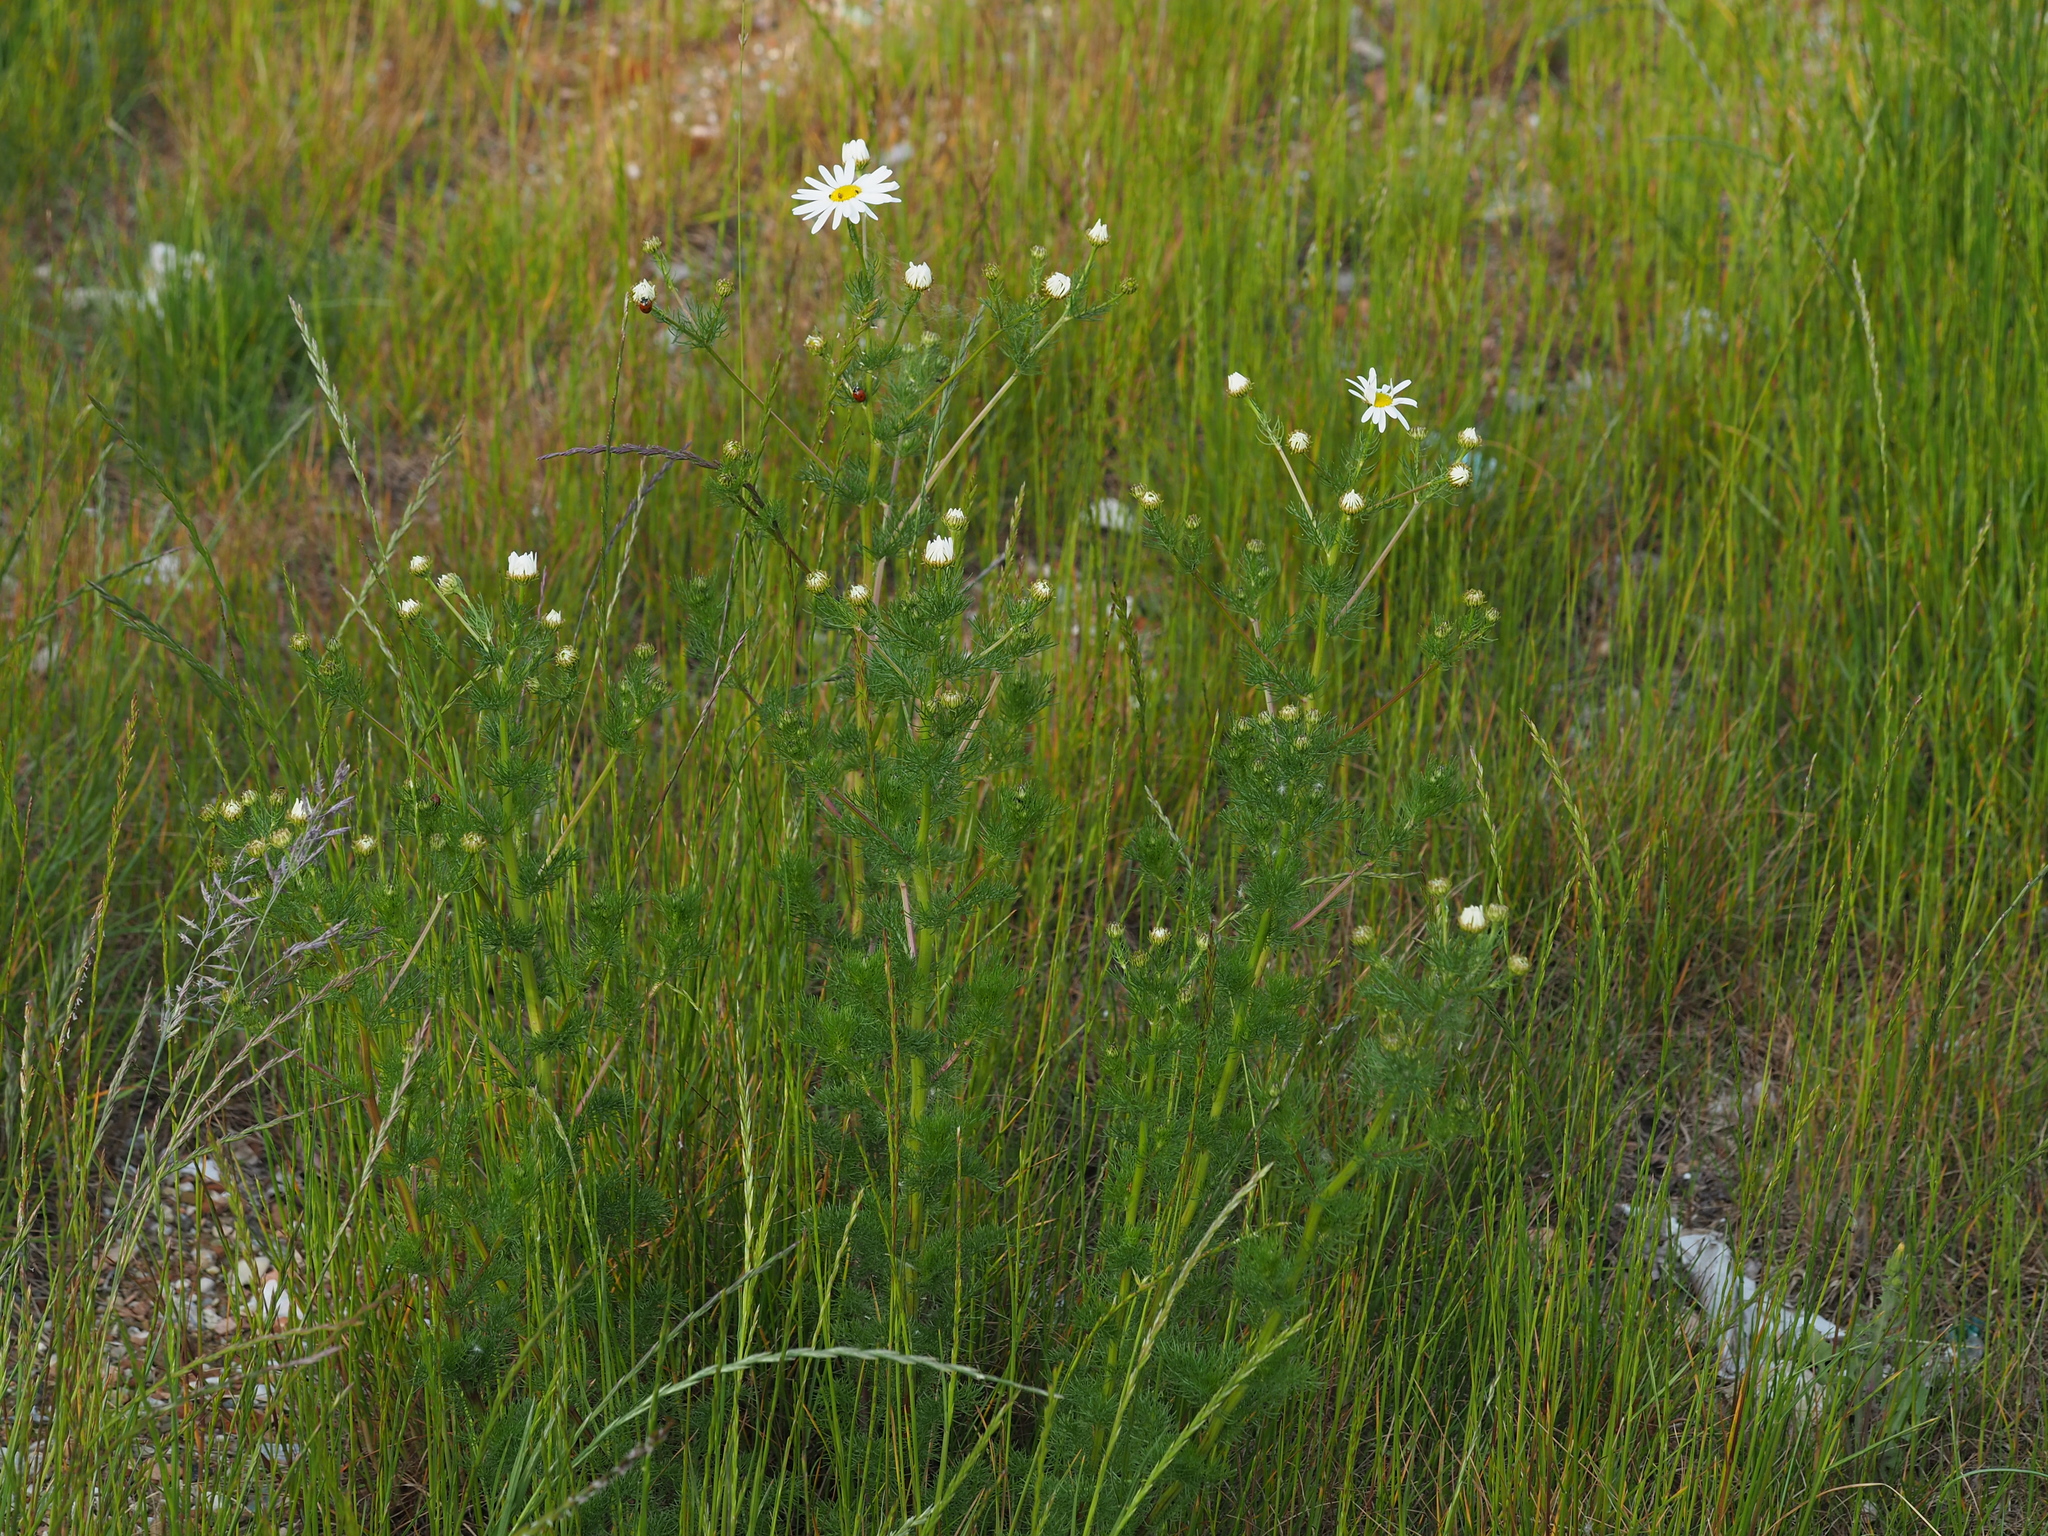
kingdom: Plantae
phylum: Tracheophyta
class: Magnoliopsida
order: Asterales
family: Asteraceae
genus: Tripleurospermum
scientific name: Tripleurospermum inodorum
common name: Scentless mayweed
